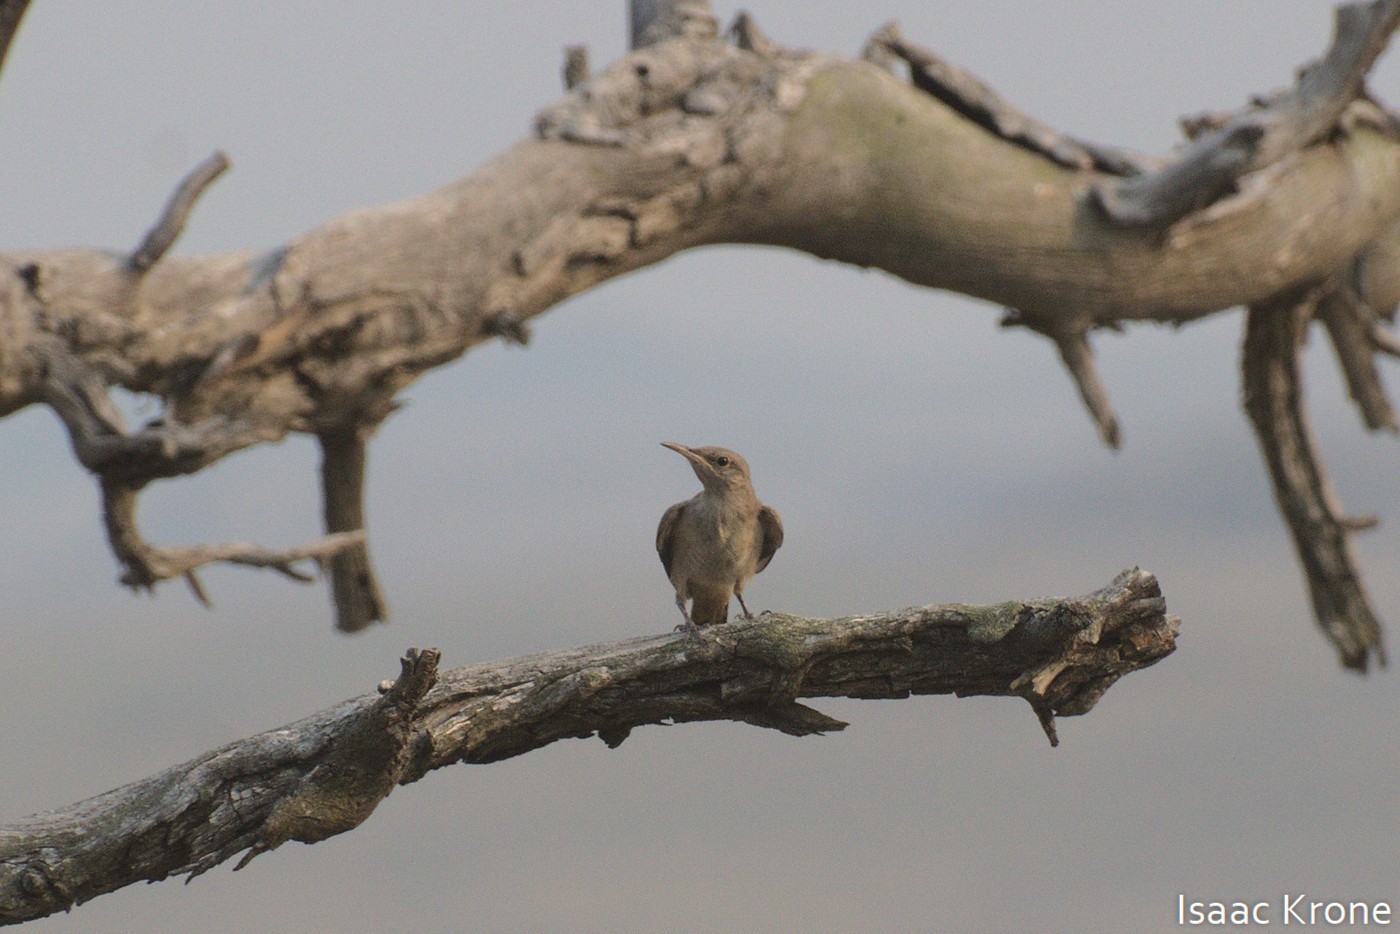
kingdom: Animalia
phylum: Chordata
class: Aves
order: Passeriformes
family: Troglodytidae
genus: Salpinctes
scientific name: Salpinctes obsoletus
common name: Rock wren
